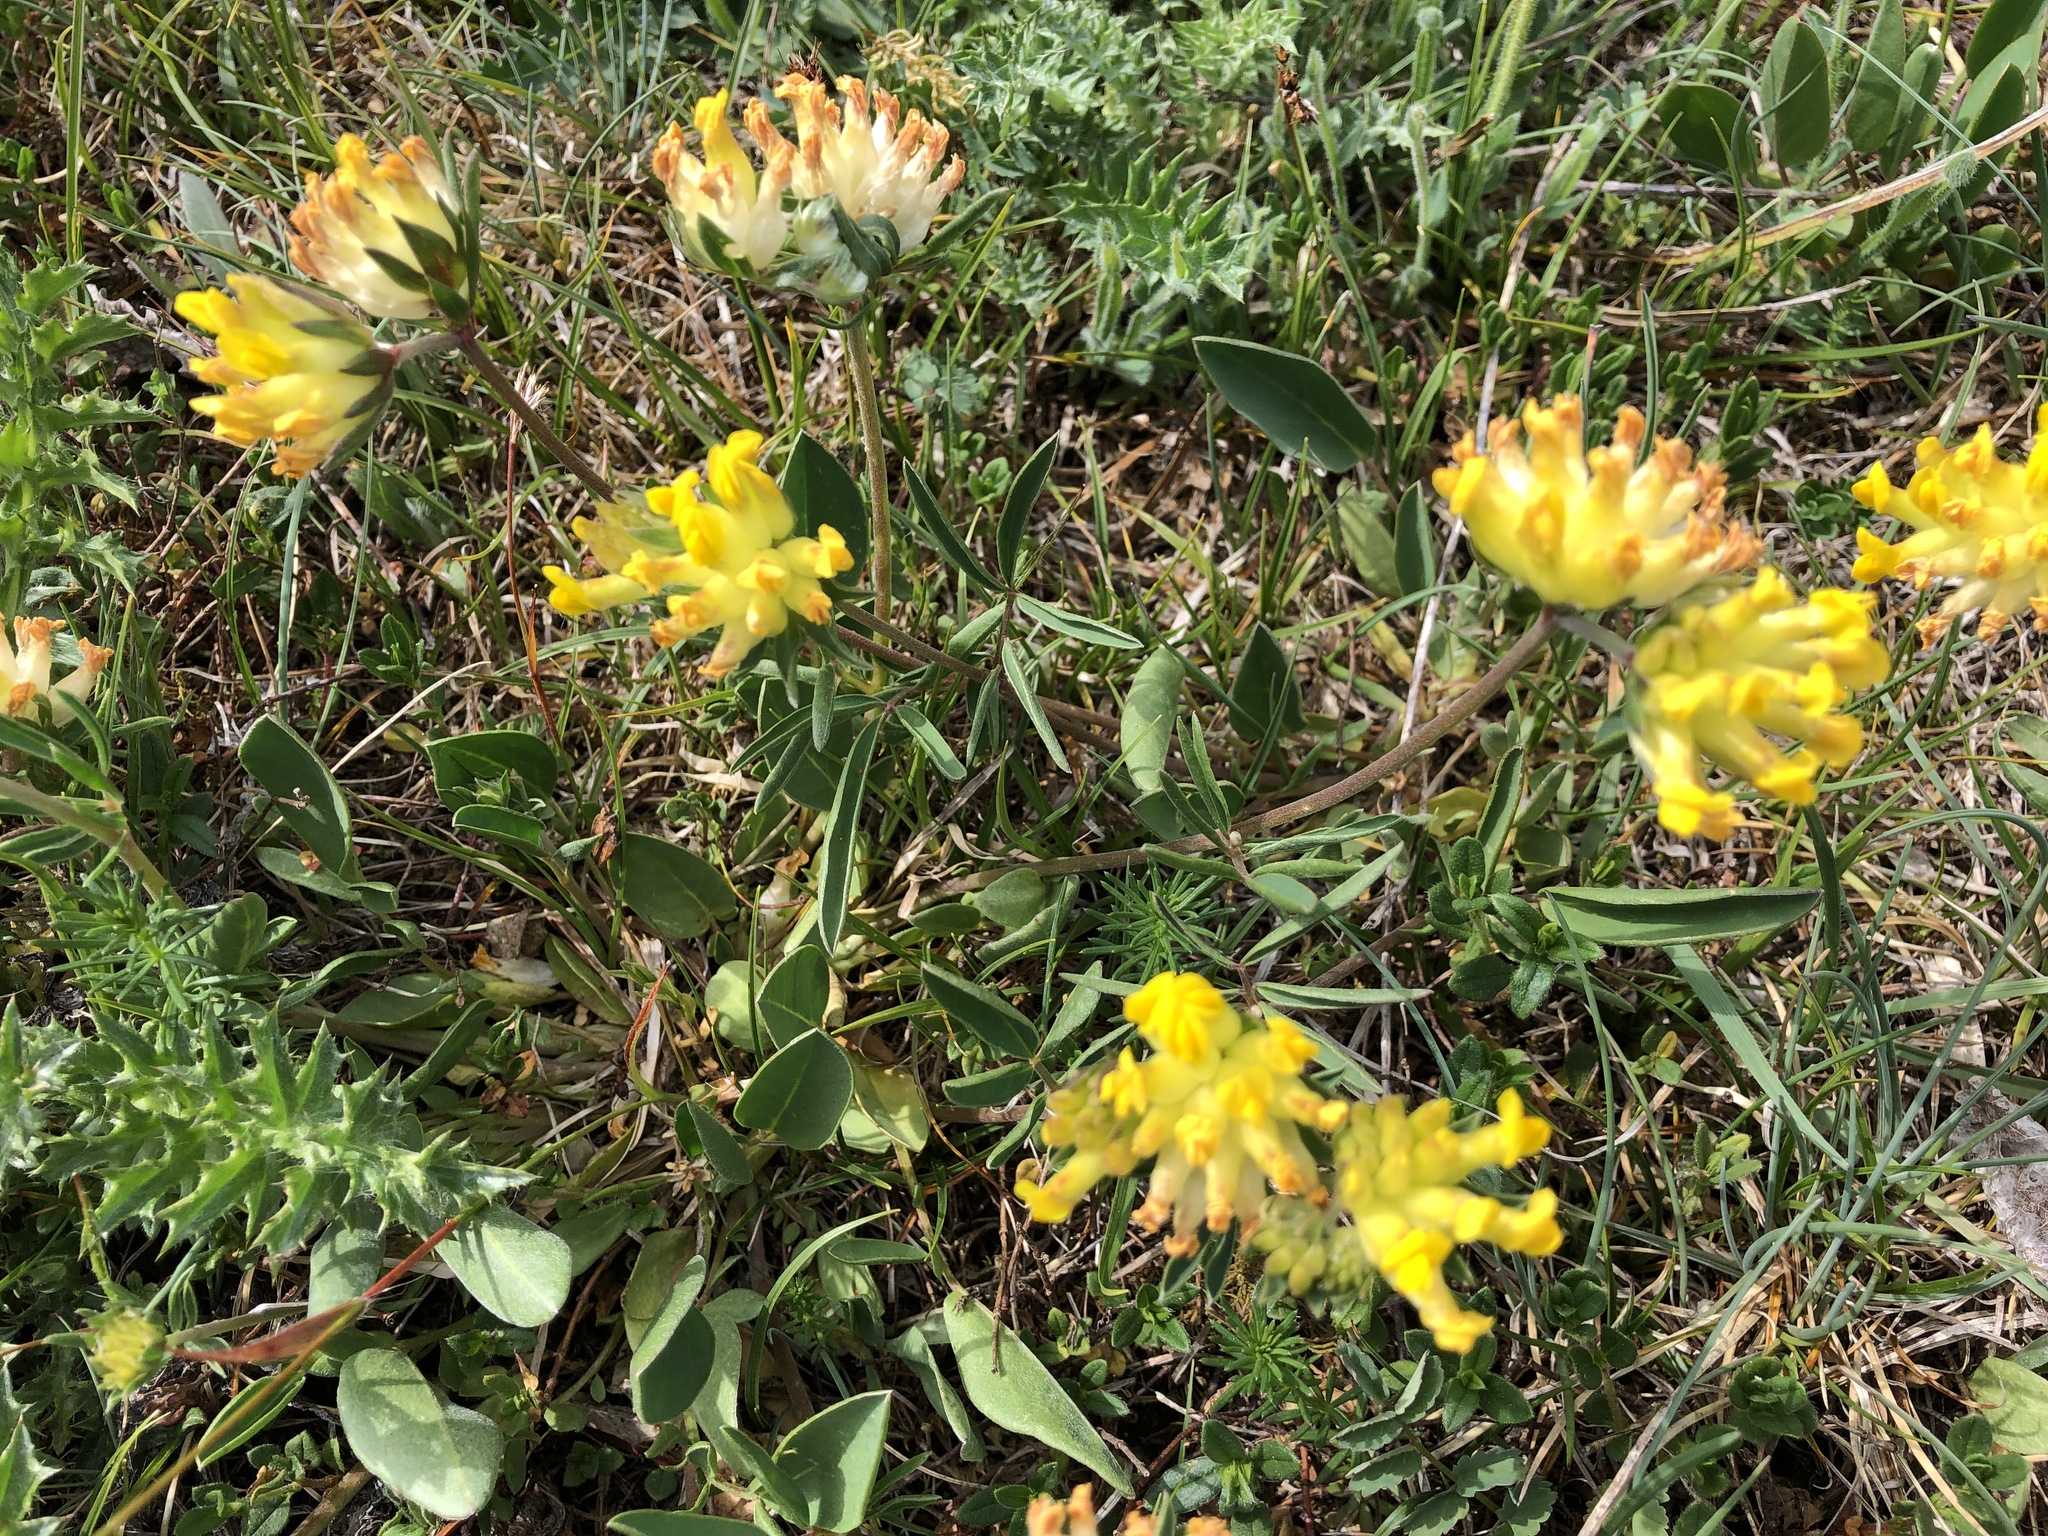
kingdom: Plantae
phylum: Tracheophyta
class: Magnoliopsida
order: Fabales
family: Fabaceae
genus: Anthyllis
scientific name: Anthyllis vulneraria
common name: Kidney vetch
